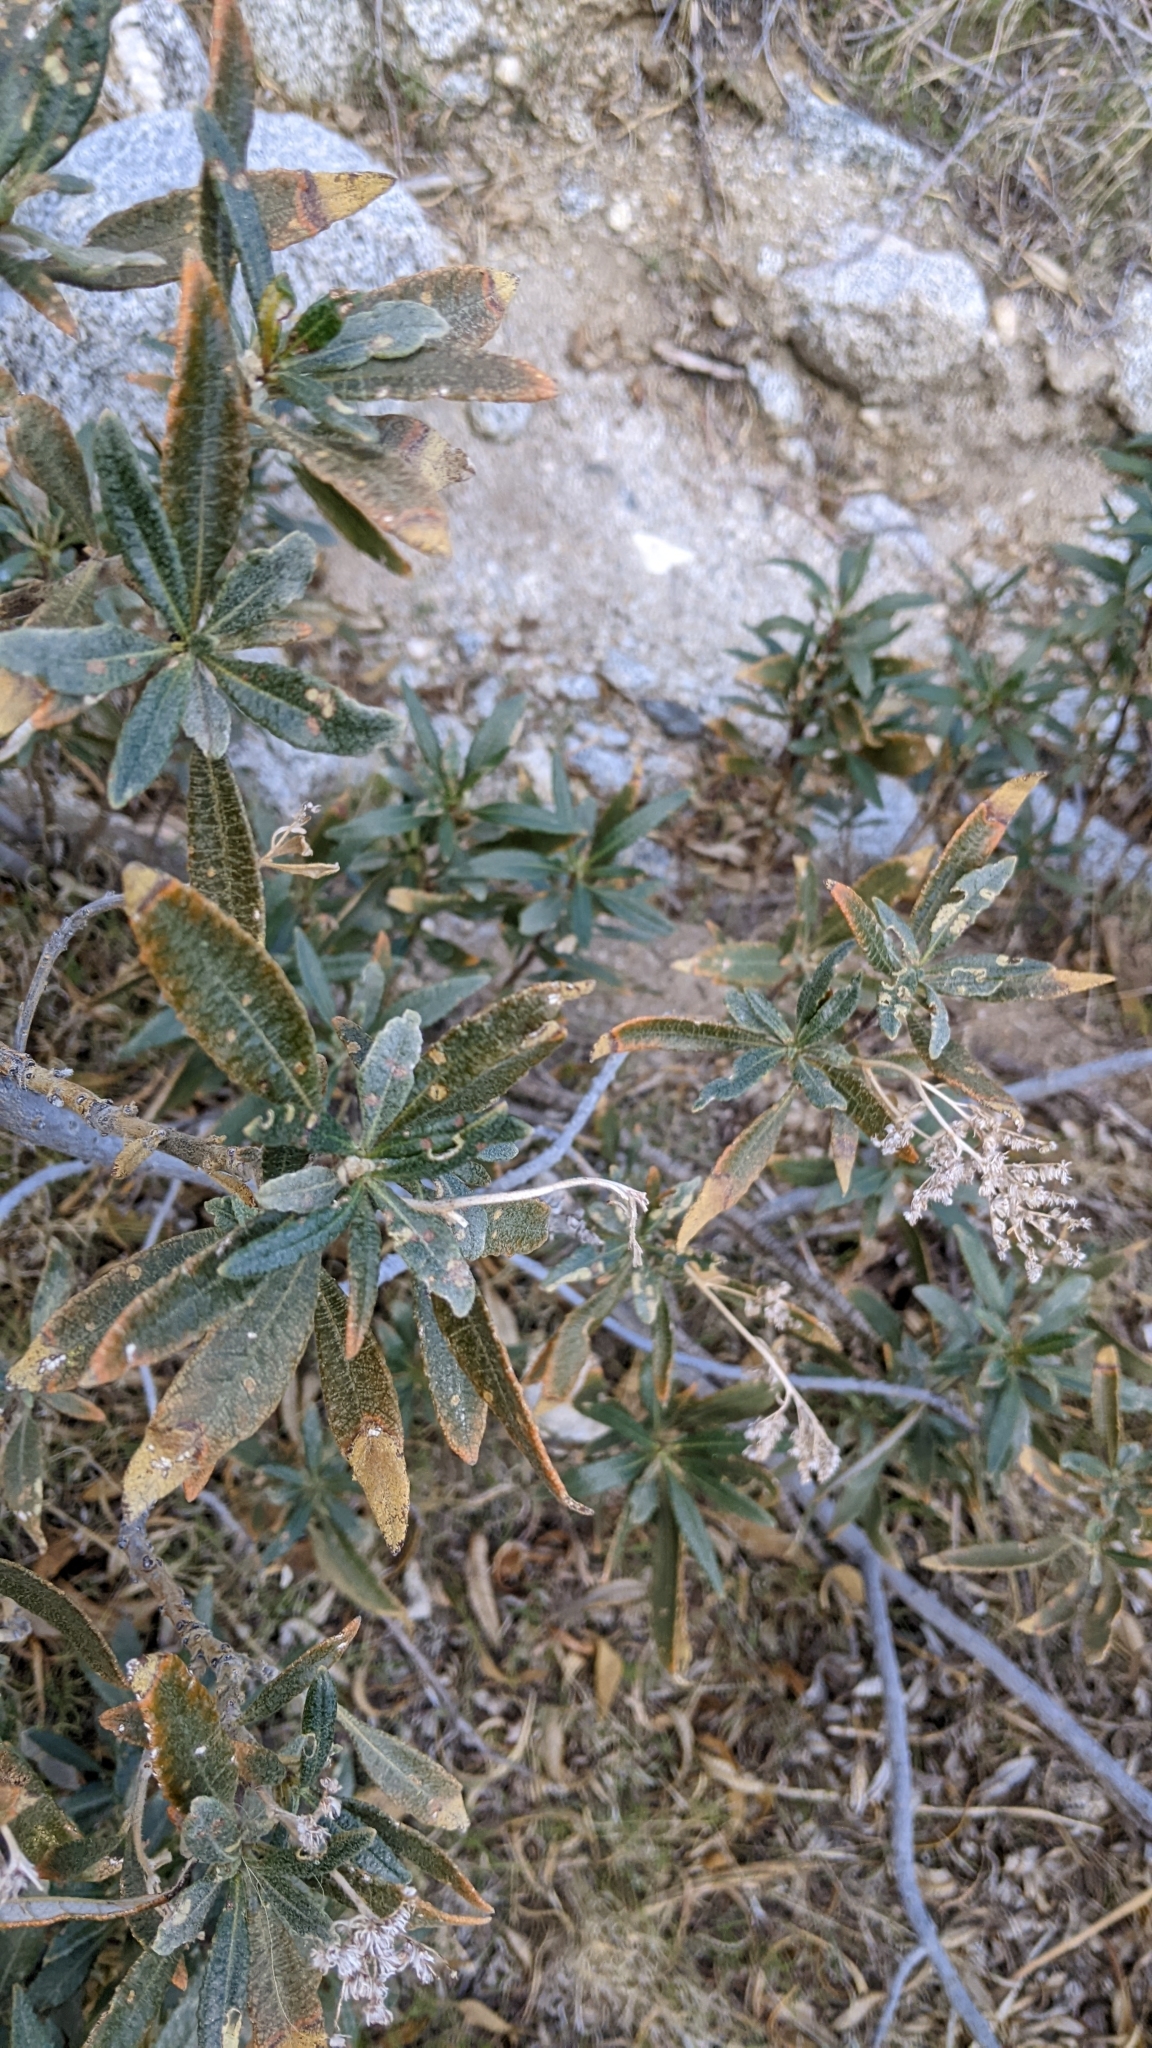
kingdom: Plantae
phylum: Tracheophyta
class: Magnoliopsida
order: Boraginales
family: Namaceae
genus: Eriodictyon
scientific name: Eriodictyon trichocalyx
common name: Hairy yerba-santa
